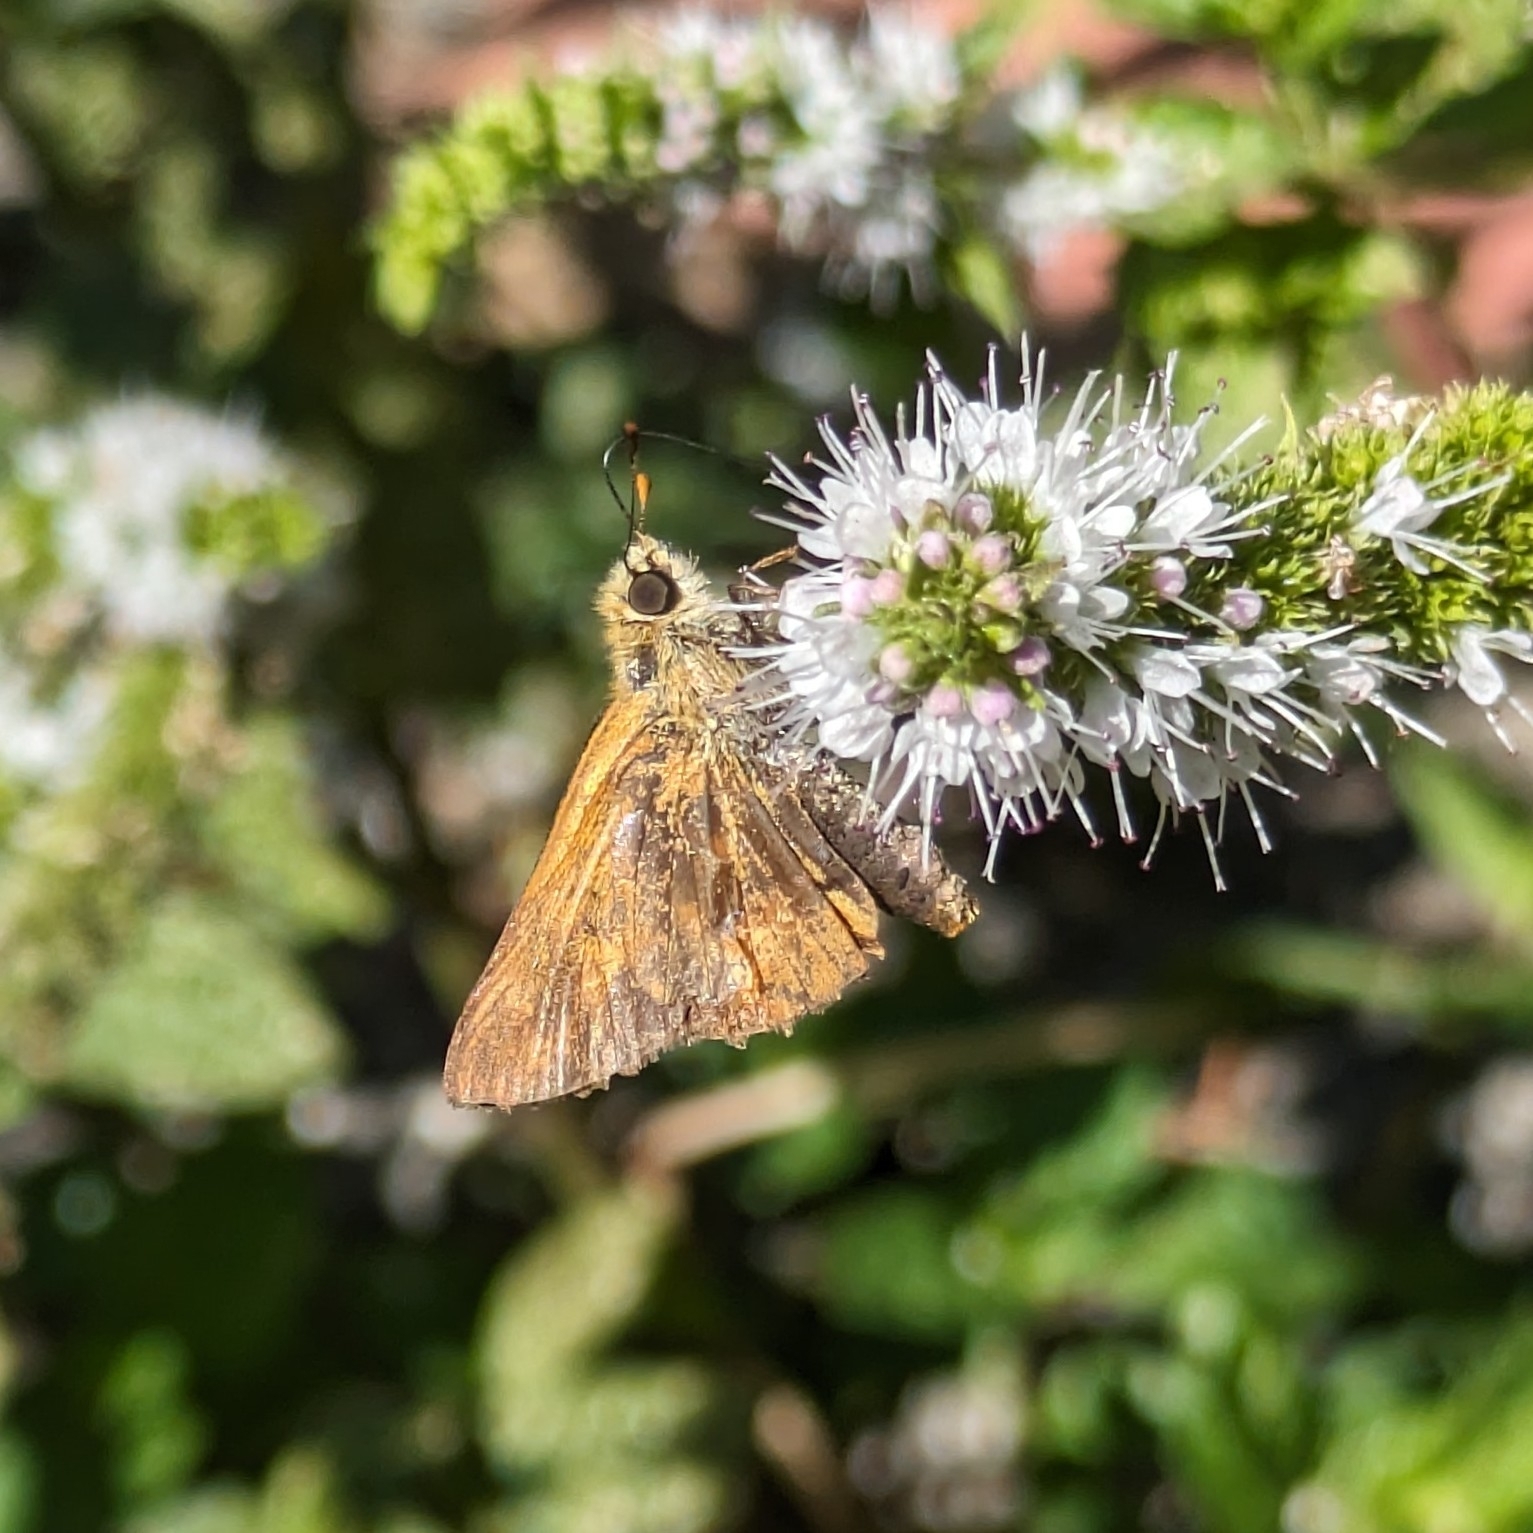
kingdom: Animalia
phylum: Arthropoda
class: Insecta
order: Lepidoptera
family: Hesperiidae
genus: Ochlodes
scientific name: Ochlodes sylvanoides
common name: Woodland skipper
